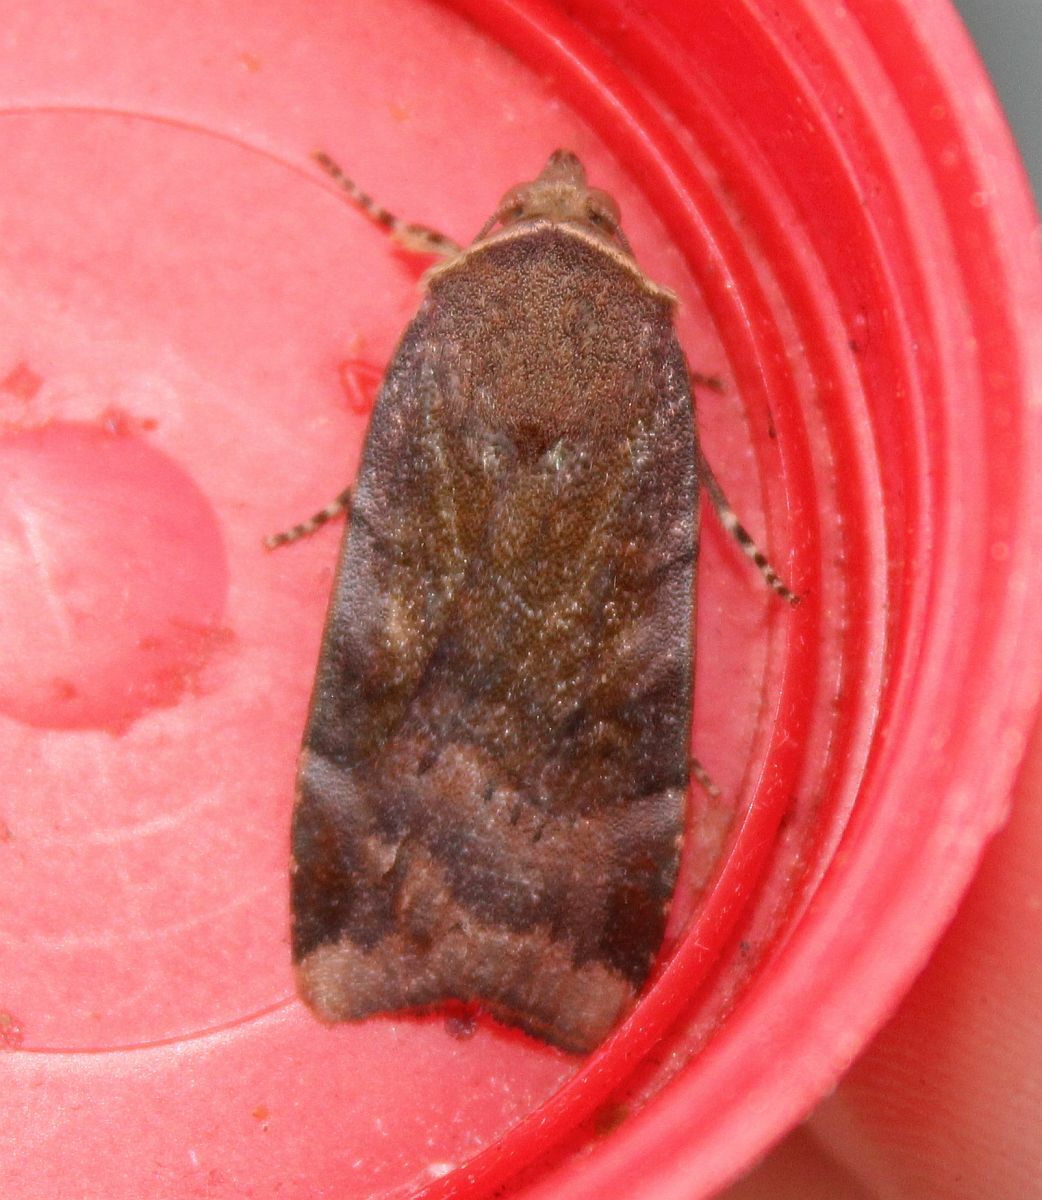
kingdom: Animalia
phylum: Arthropoda
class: Insecta
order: Lepidoptera
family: Noctuidae
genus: Noctua
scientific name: Noctua janthe
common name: Lesser broad-bordered yellow underwing
